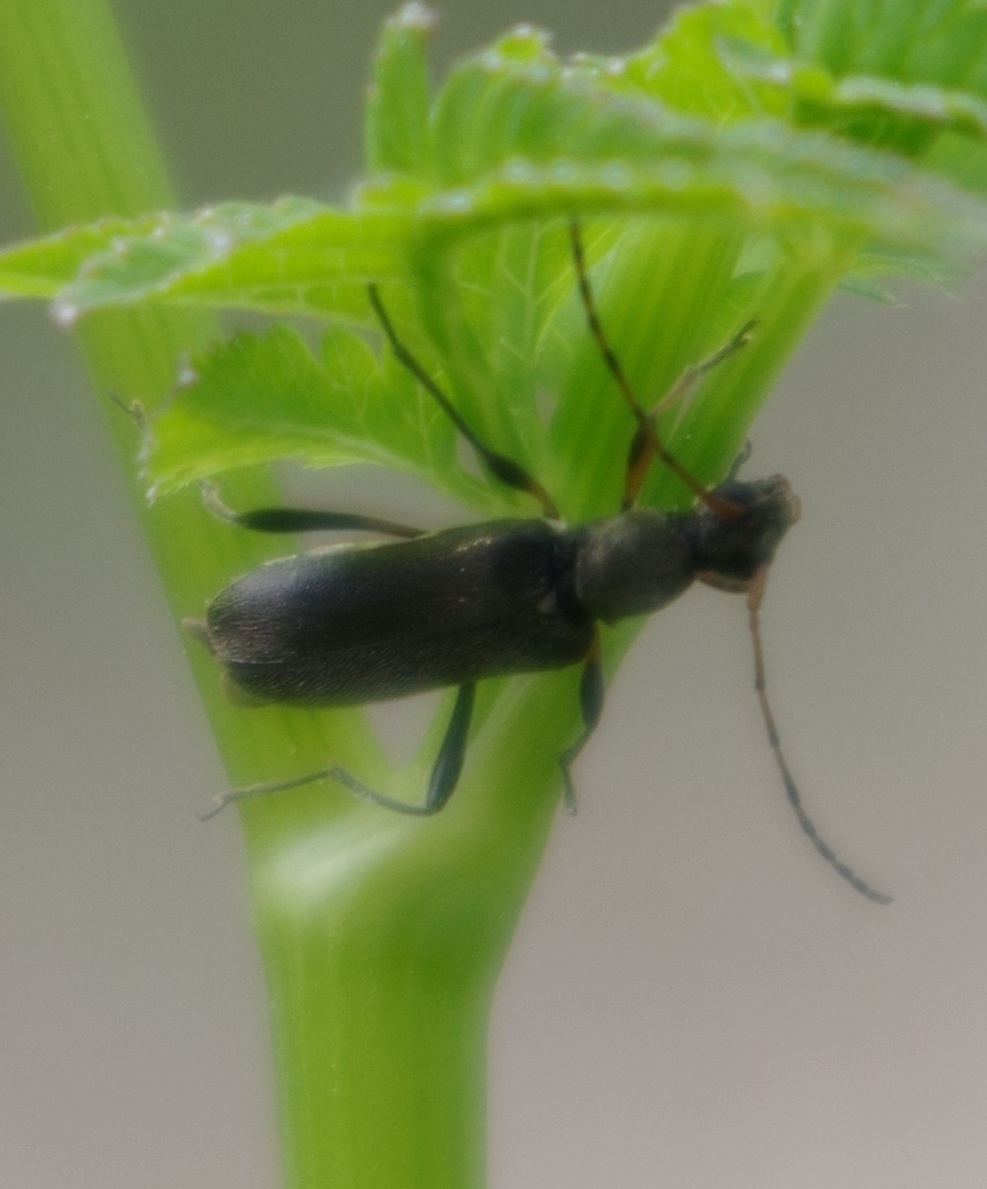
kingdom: Animalia
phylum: Arthropoda
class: Insecta
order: Coleoptera
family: Cerambycidae
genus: Grammoptera
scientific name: Grammoptera ruficornis
